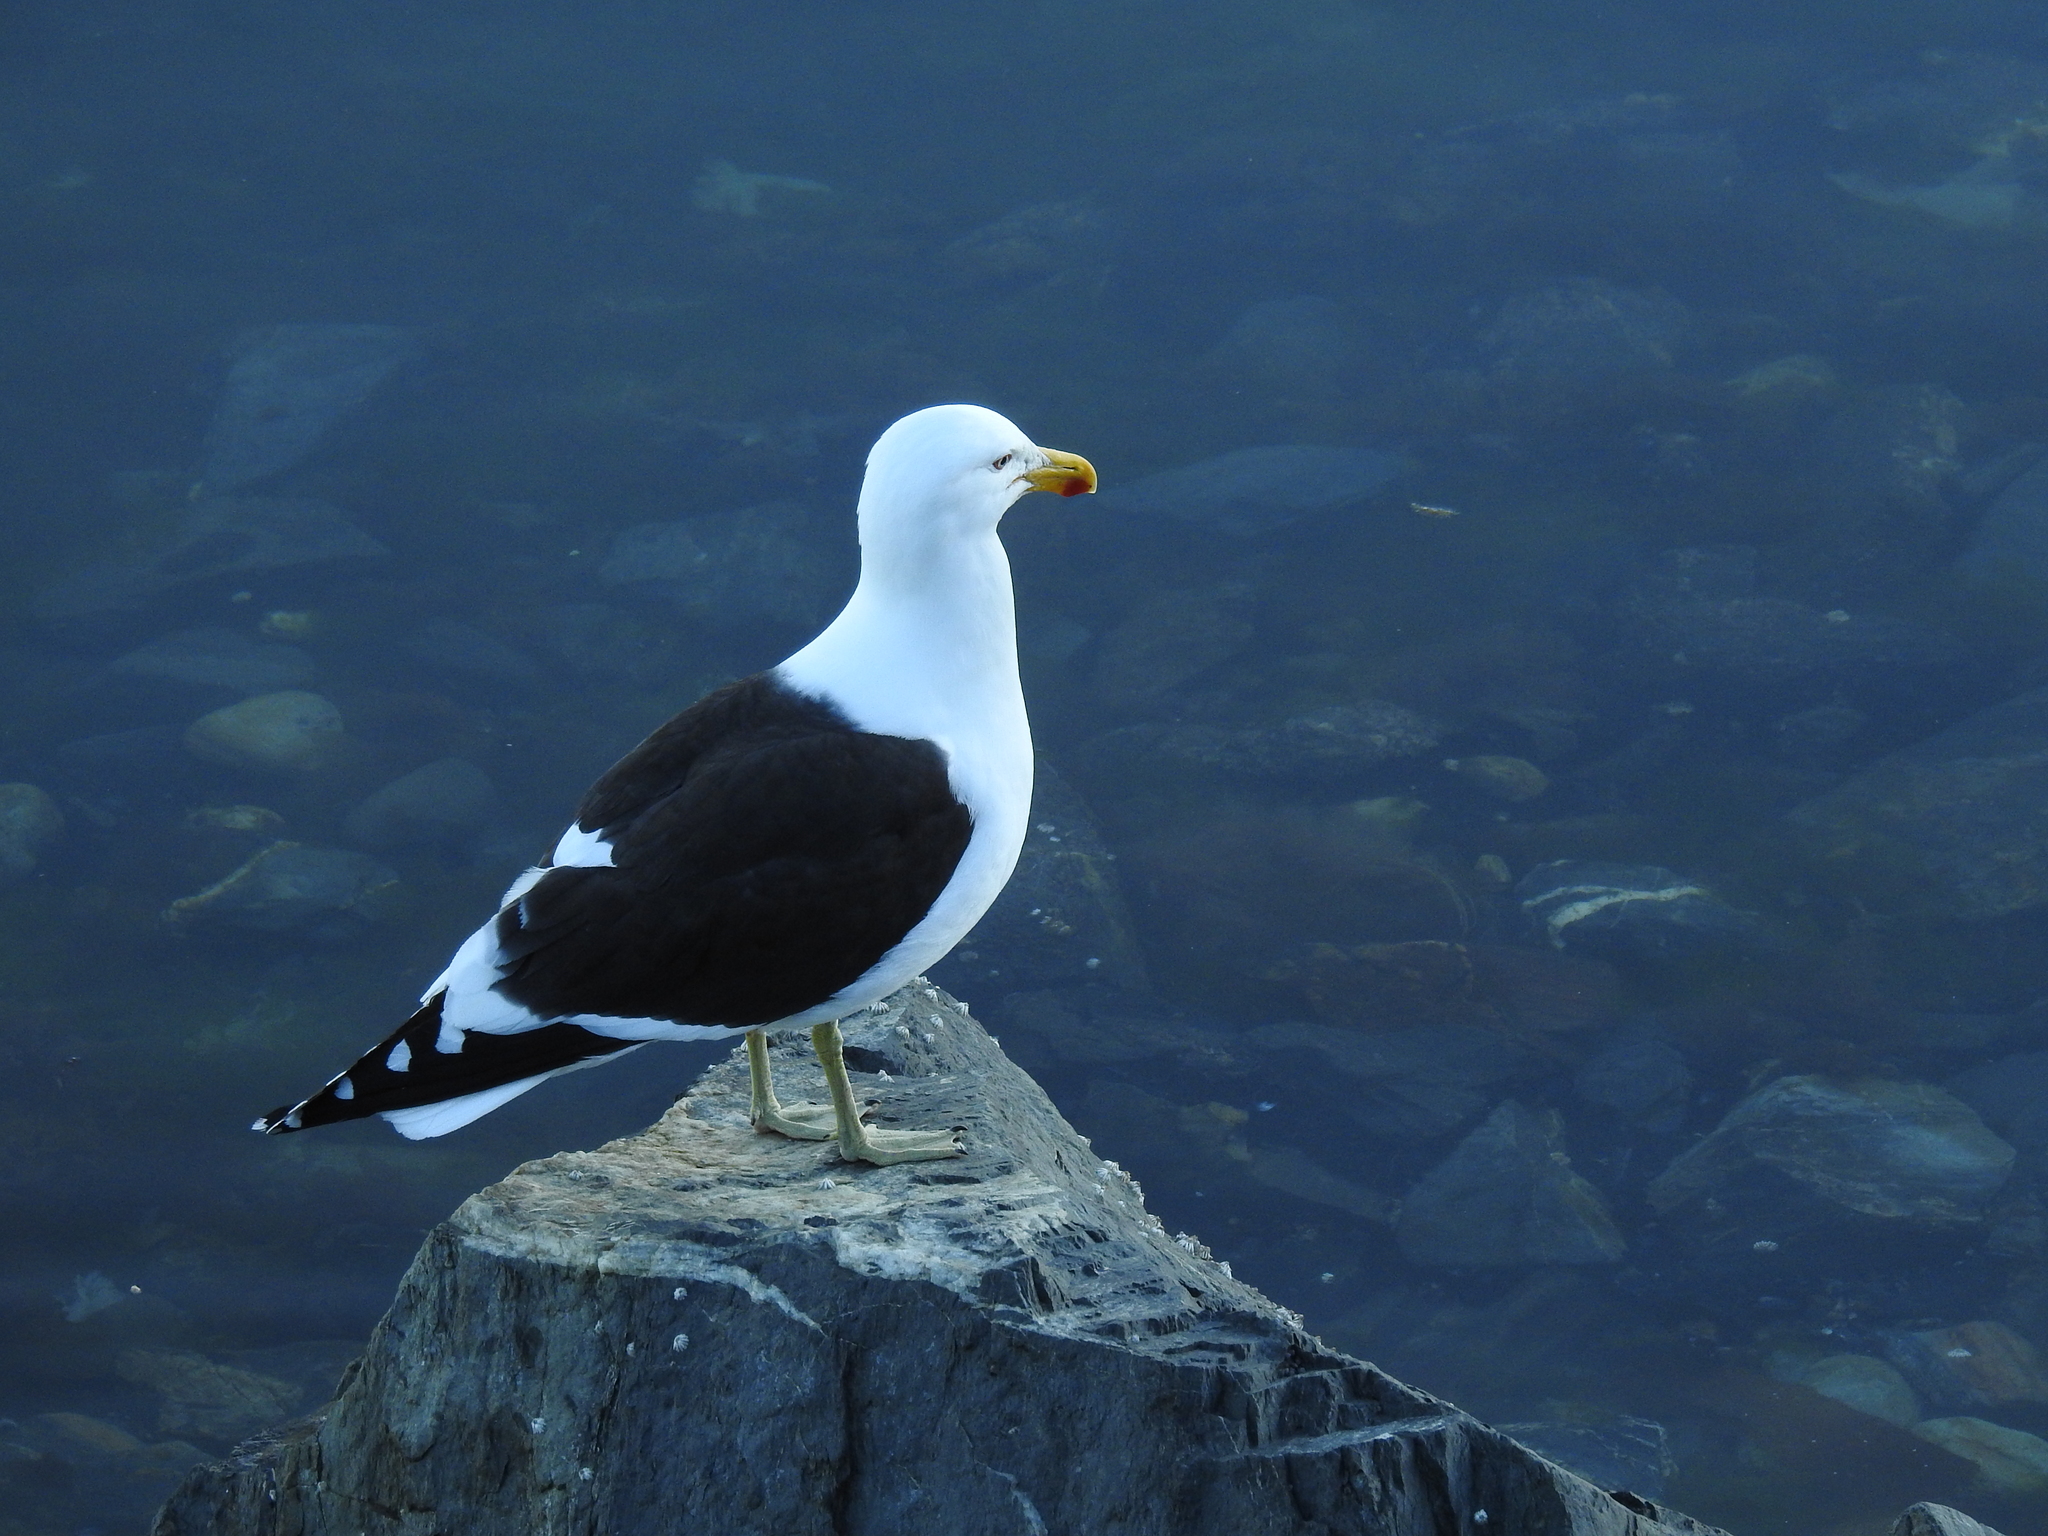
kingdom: Animalia
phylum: Chordata
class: Aves
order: Charadriiformes
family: Laridae
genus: Larus
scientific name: Larus dominicanus
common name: Kelp gull
